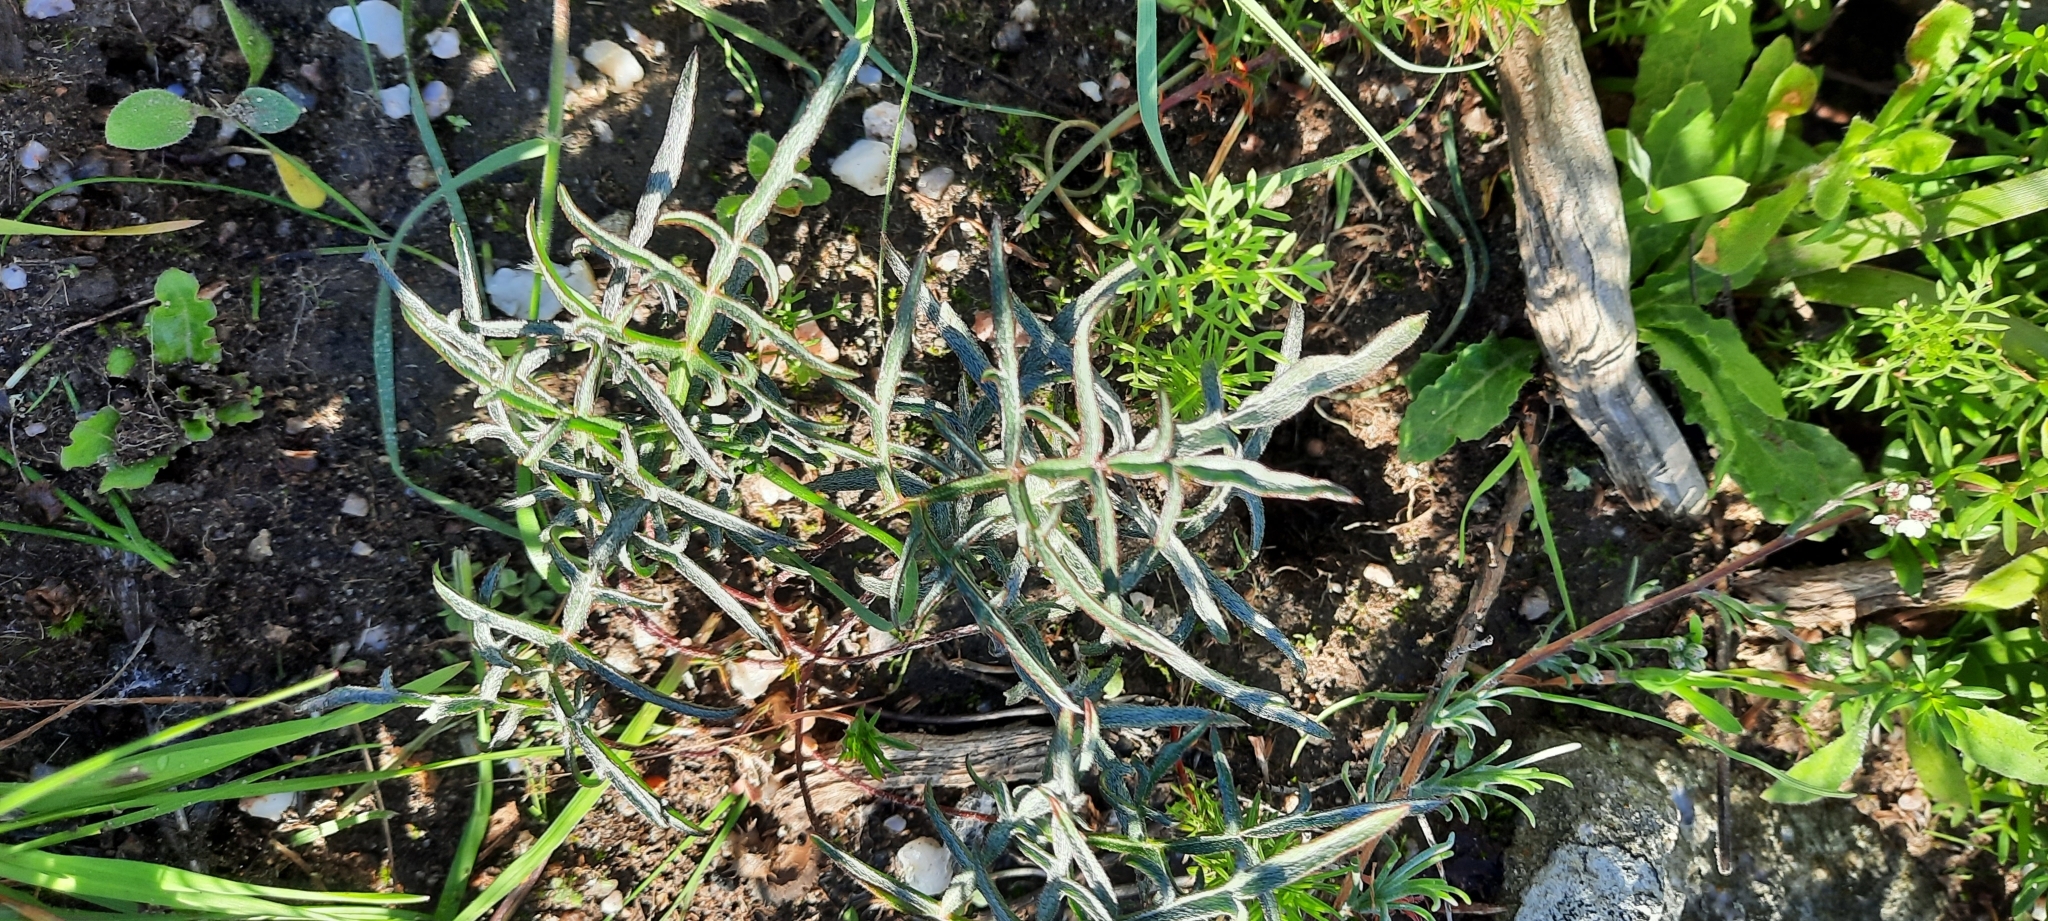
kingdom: Plantae
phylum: Tracheophyta
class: Magnoliopsida
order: Geraniales
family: Geraniaceae
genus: Pelargonium
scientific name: Pelargonium leptum
